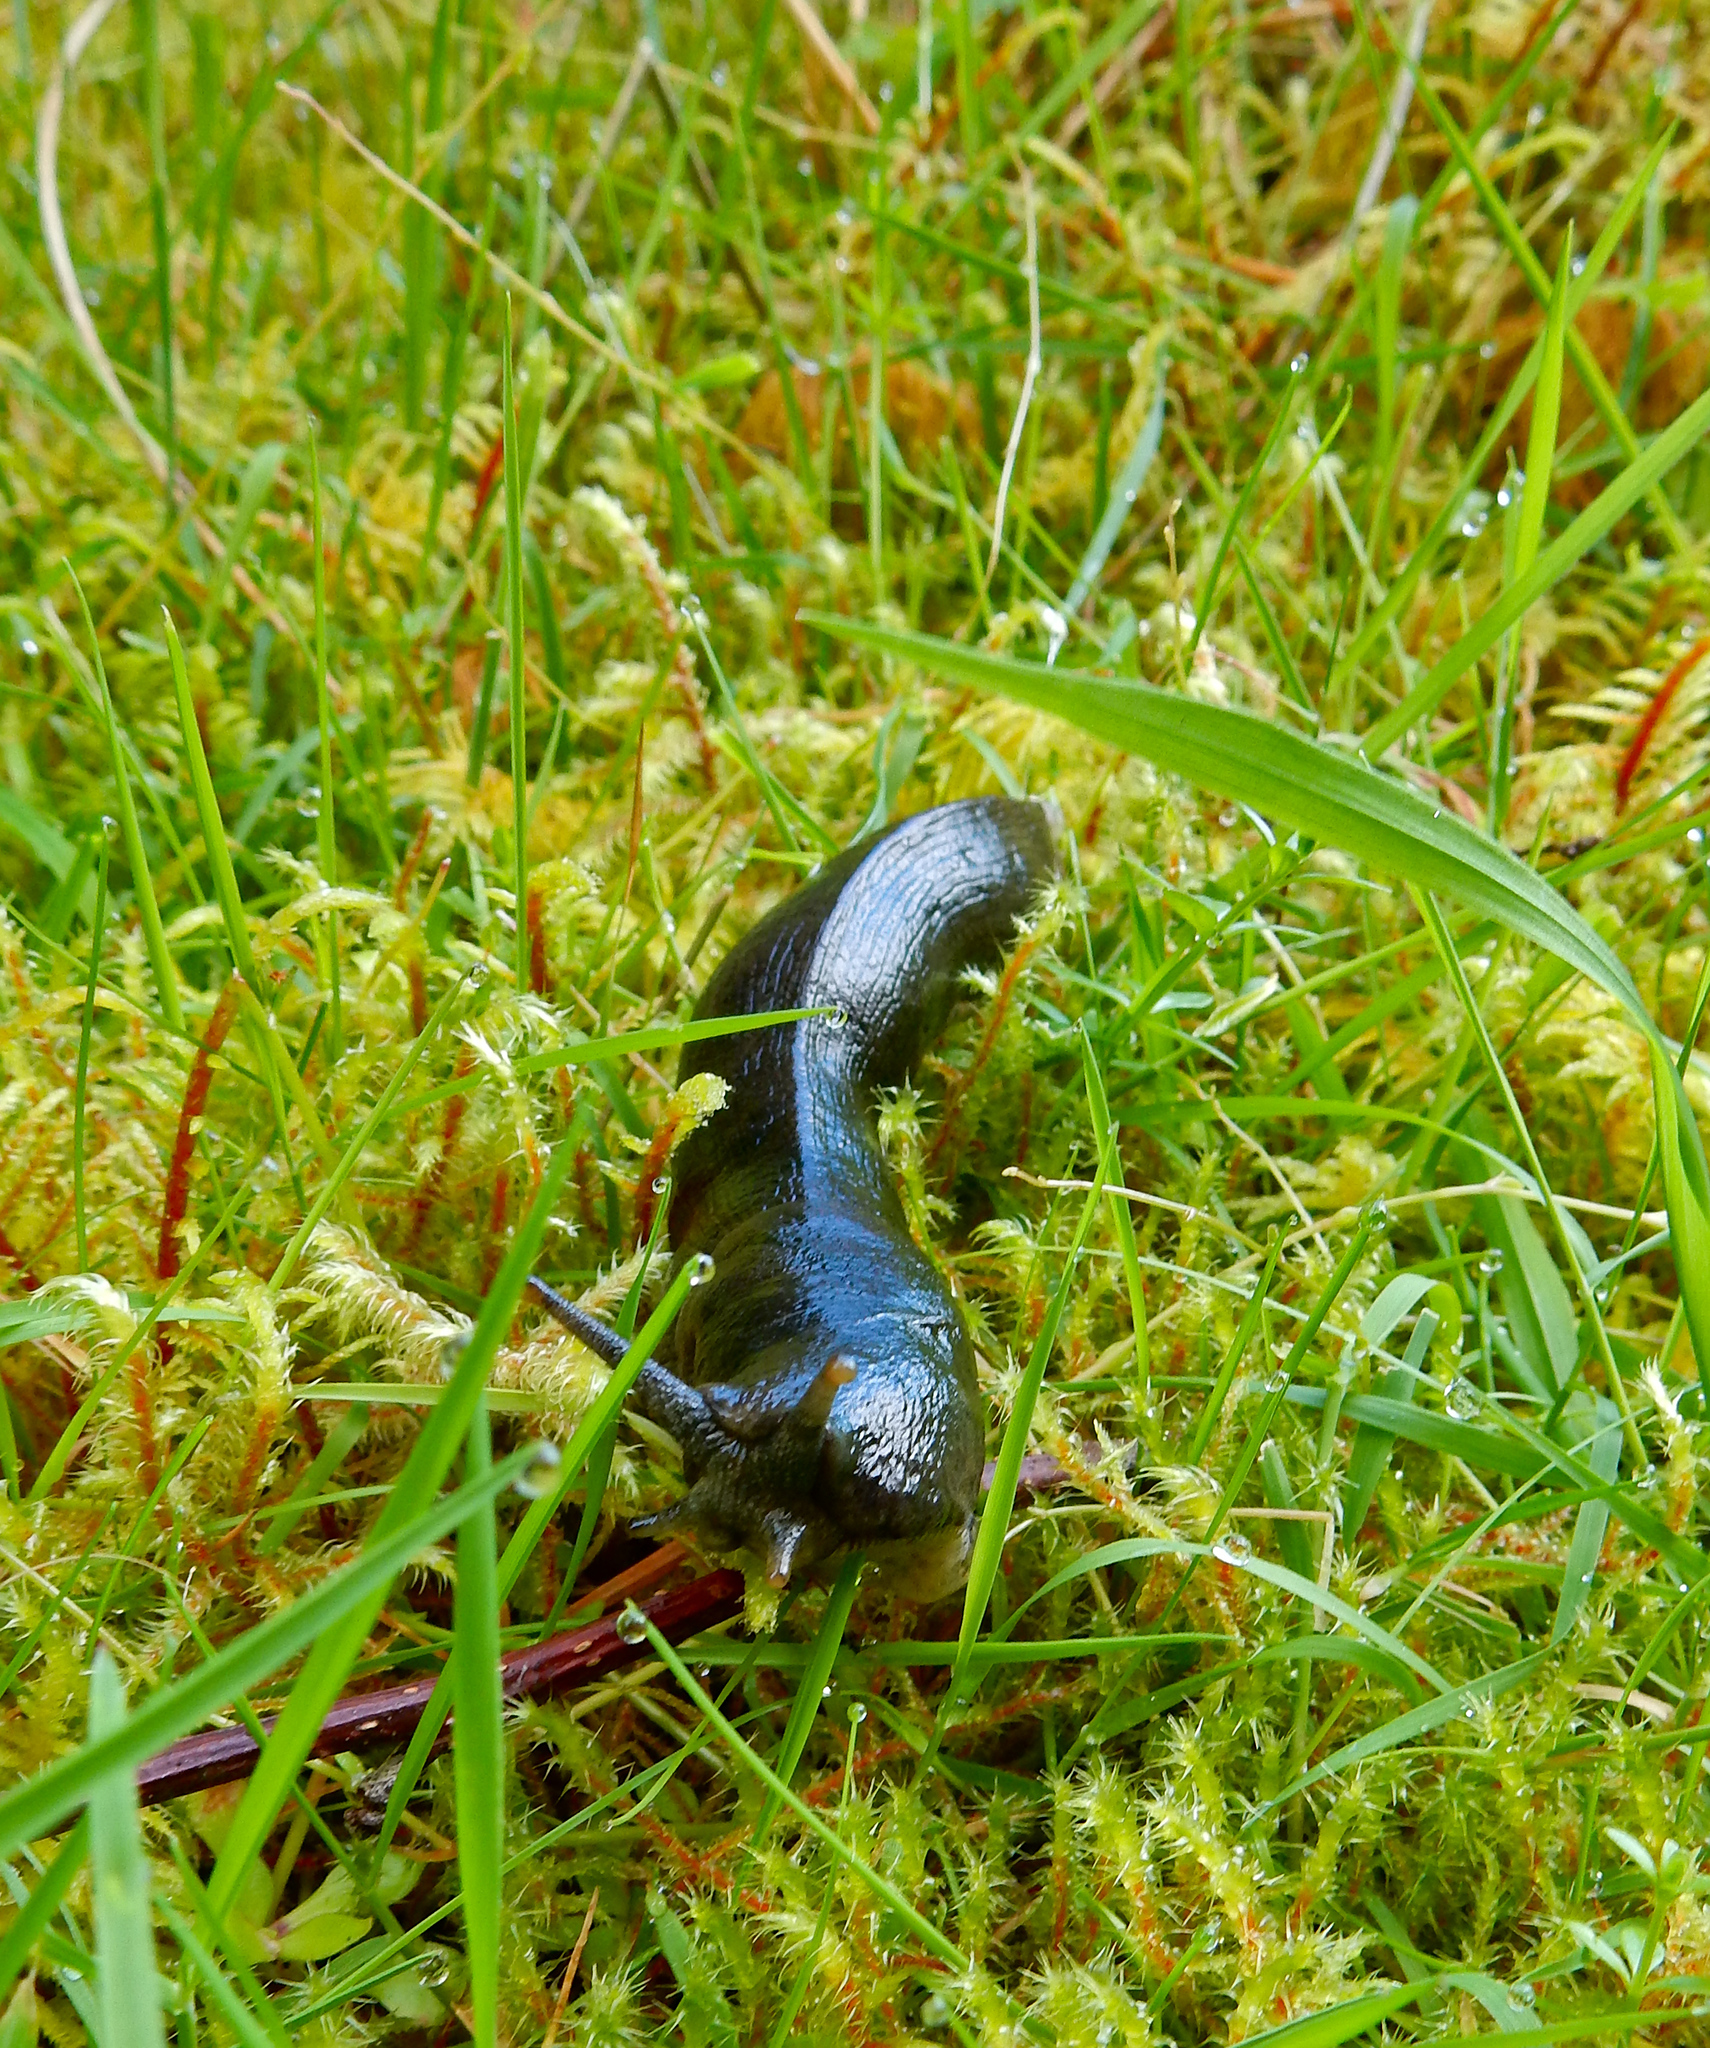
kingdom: Animalia
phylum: Mollusca
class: Gastropoda
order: Stylommatophora
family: Ariolimacidae
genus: Ariolimax
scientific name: Ariolimax columbianus
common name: Pacific banana slug
